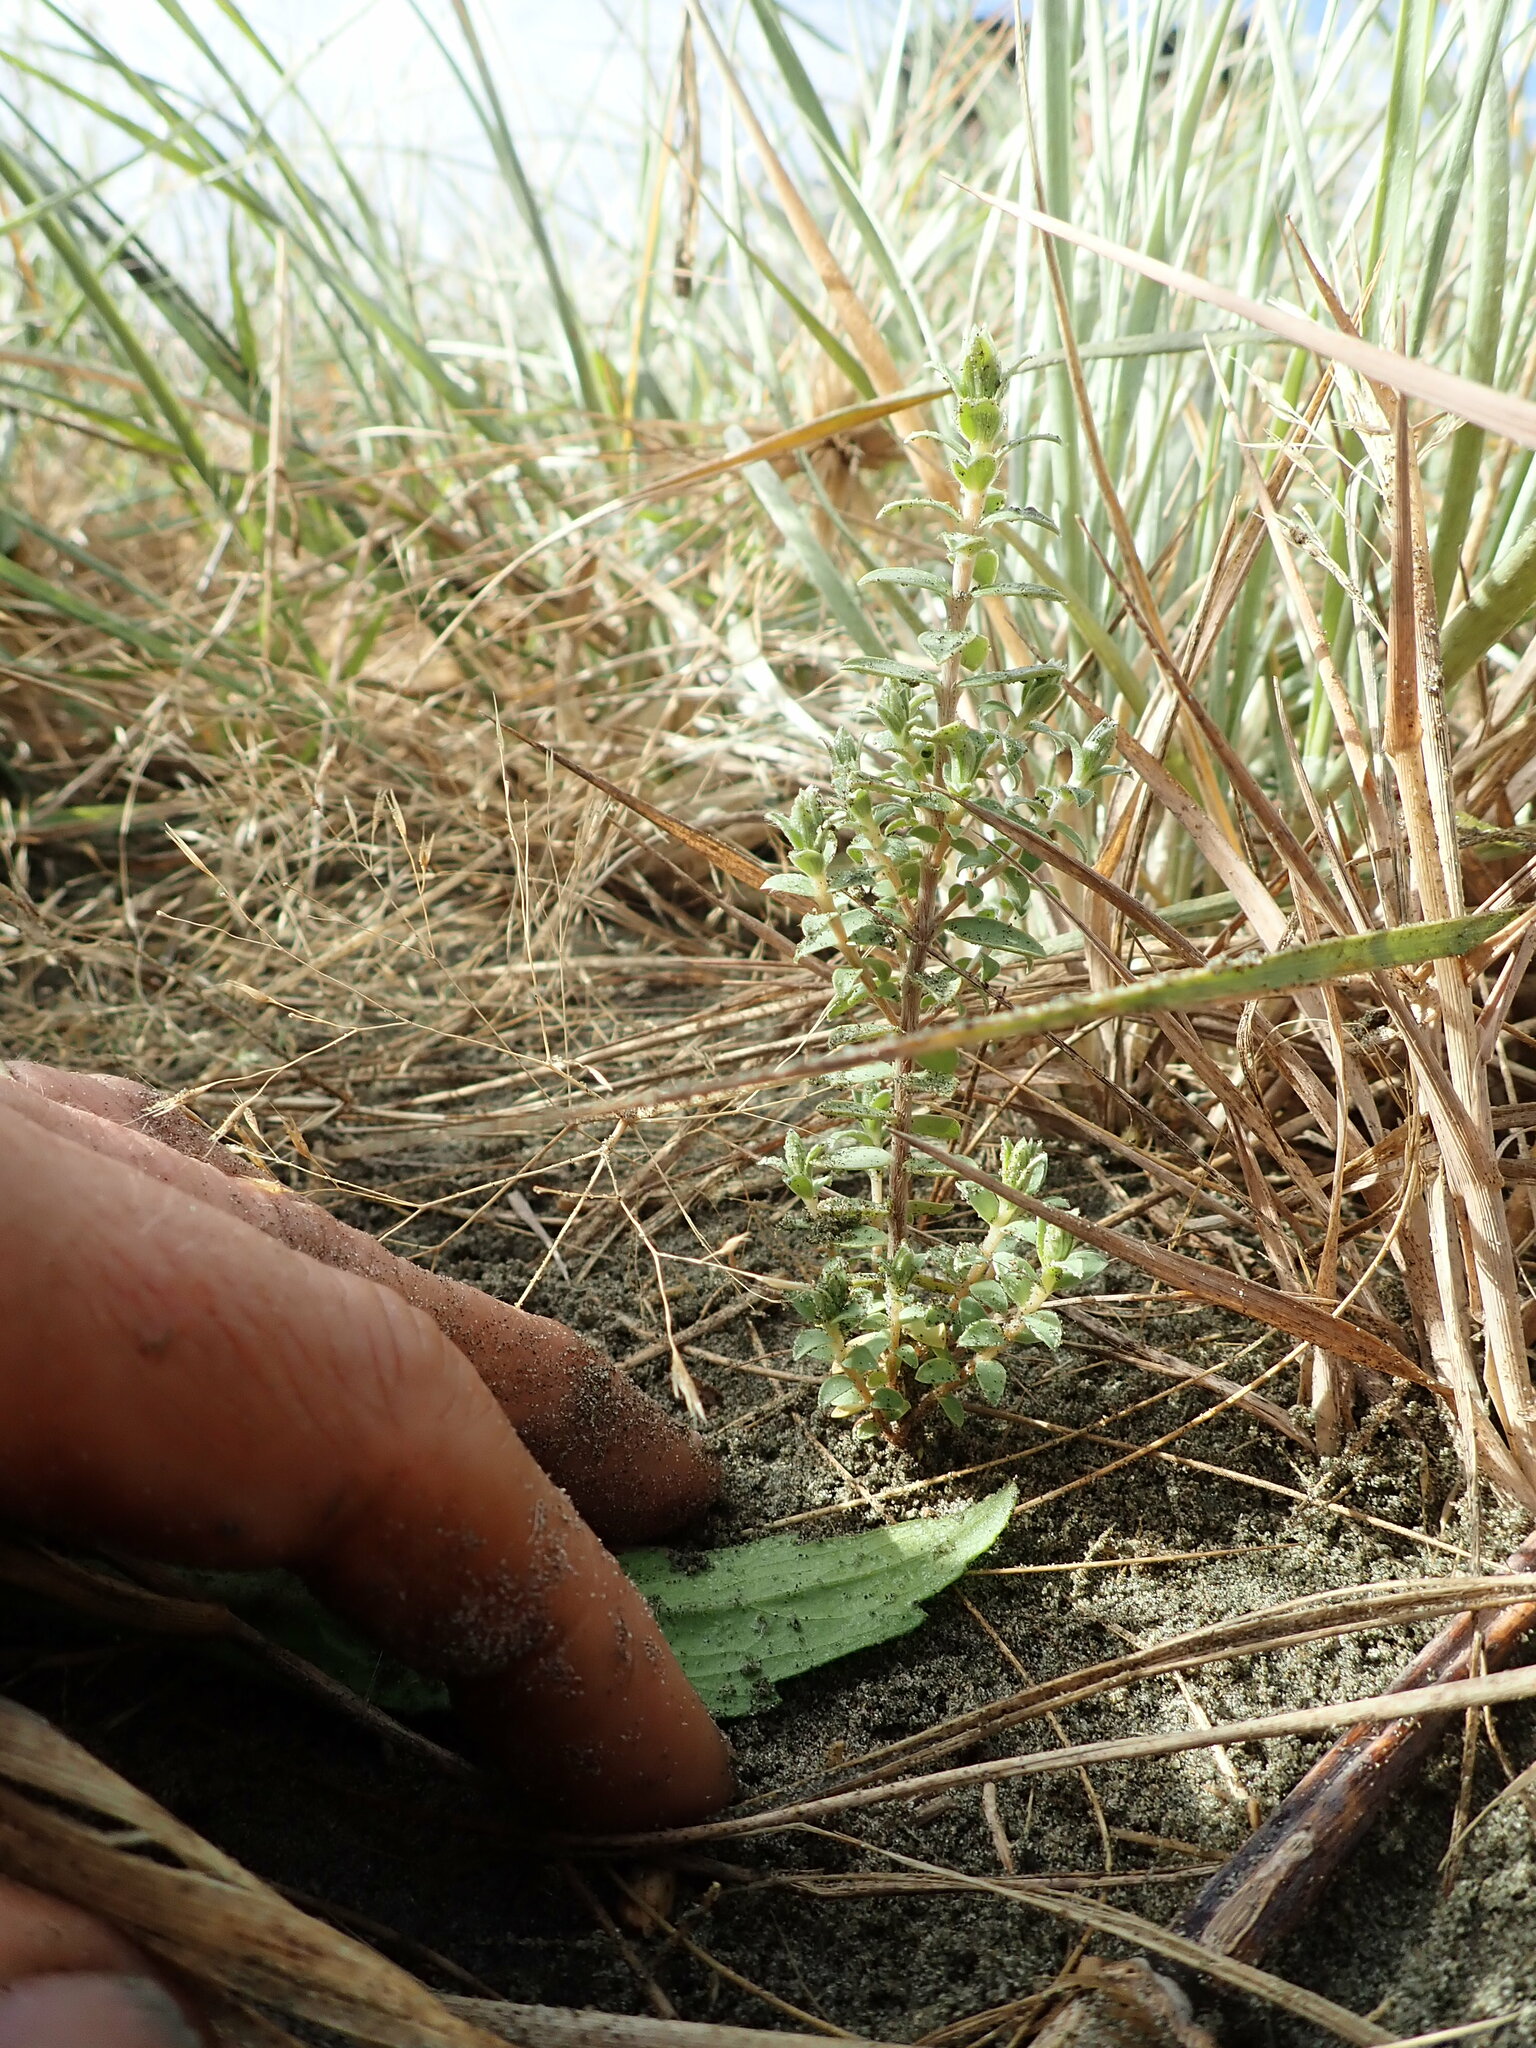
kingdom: Plantae
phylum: Tracheophyta
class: Magnoliopsida
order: Malvales
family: Thymelaeaceae
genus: Pimelea
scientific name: Pimelea villosa
